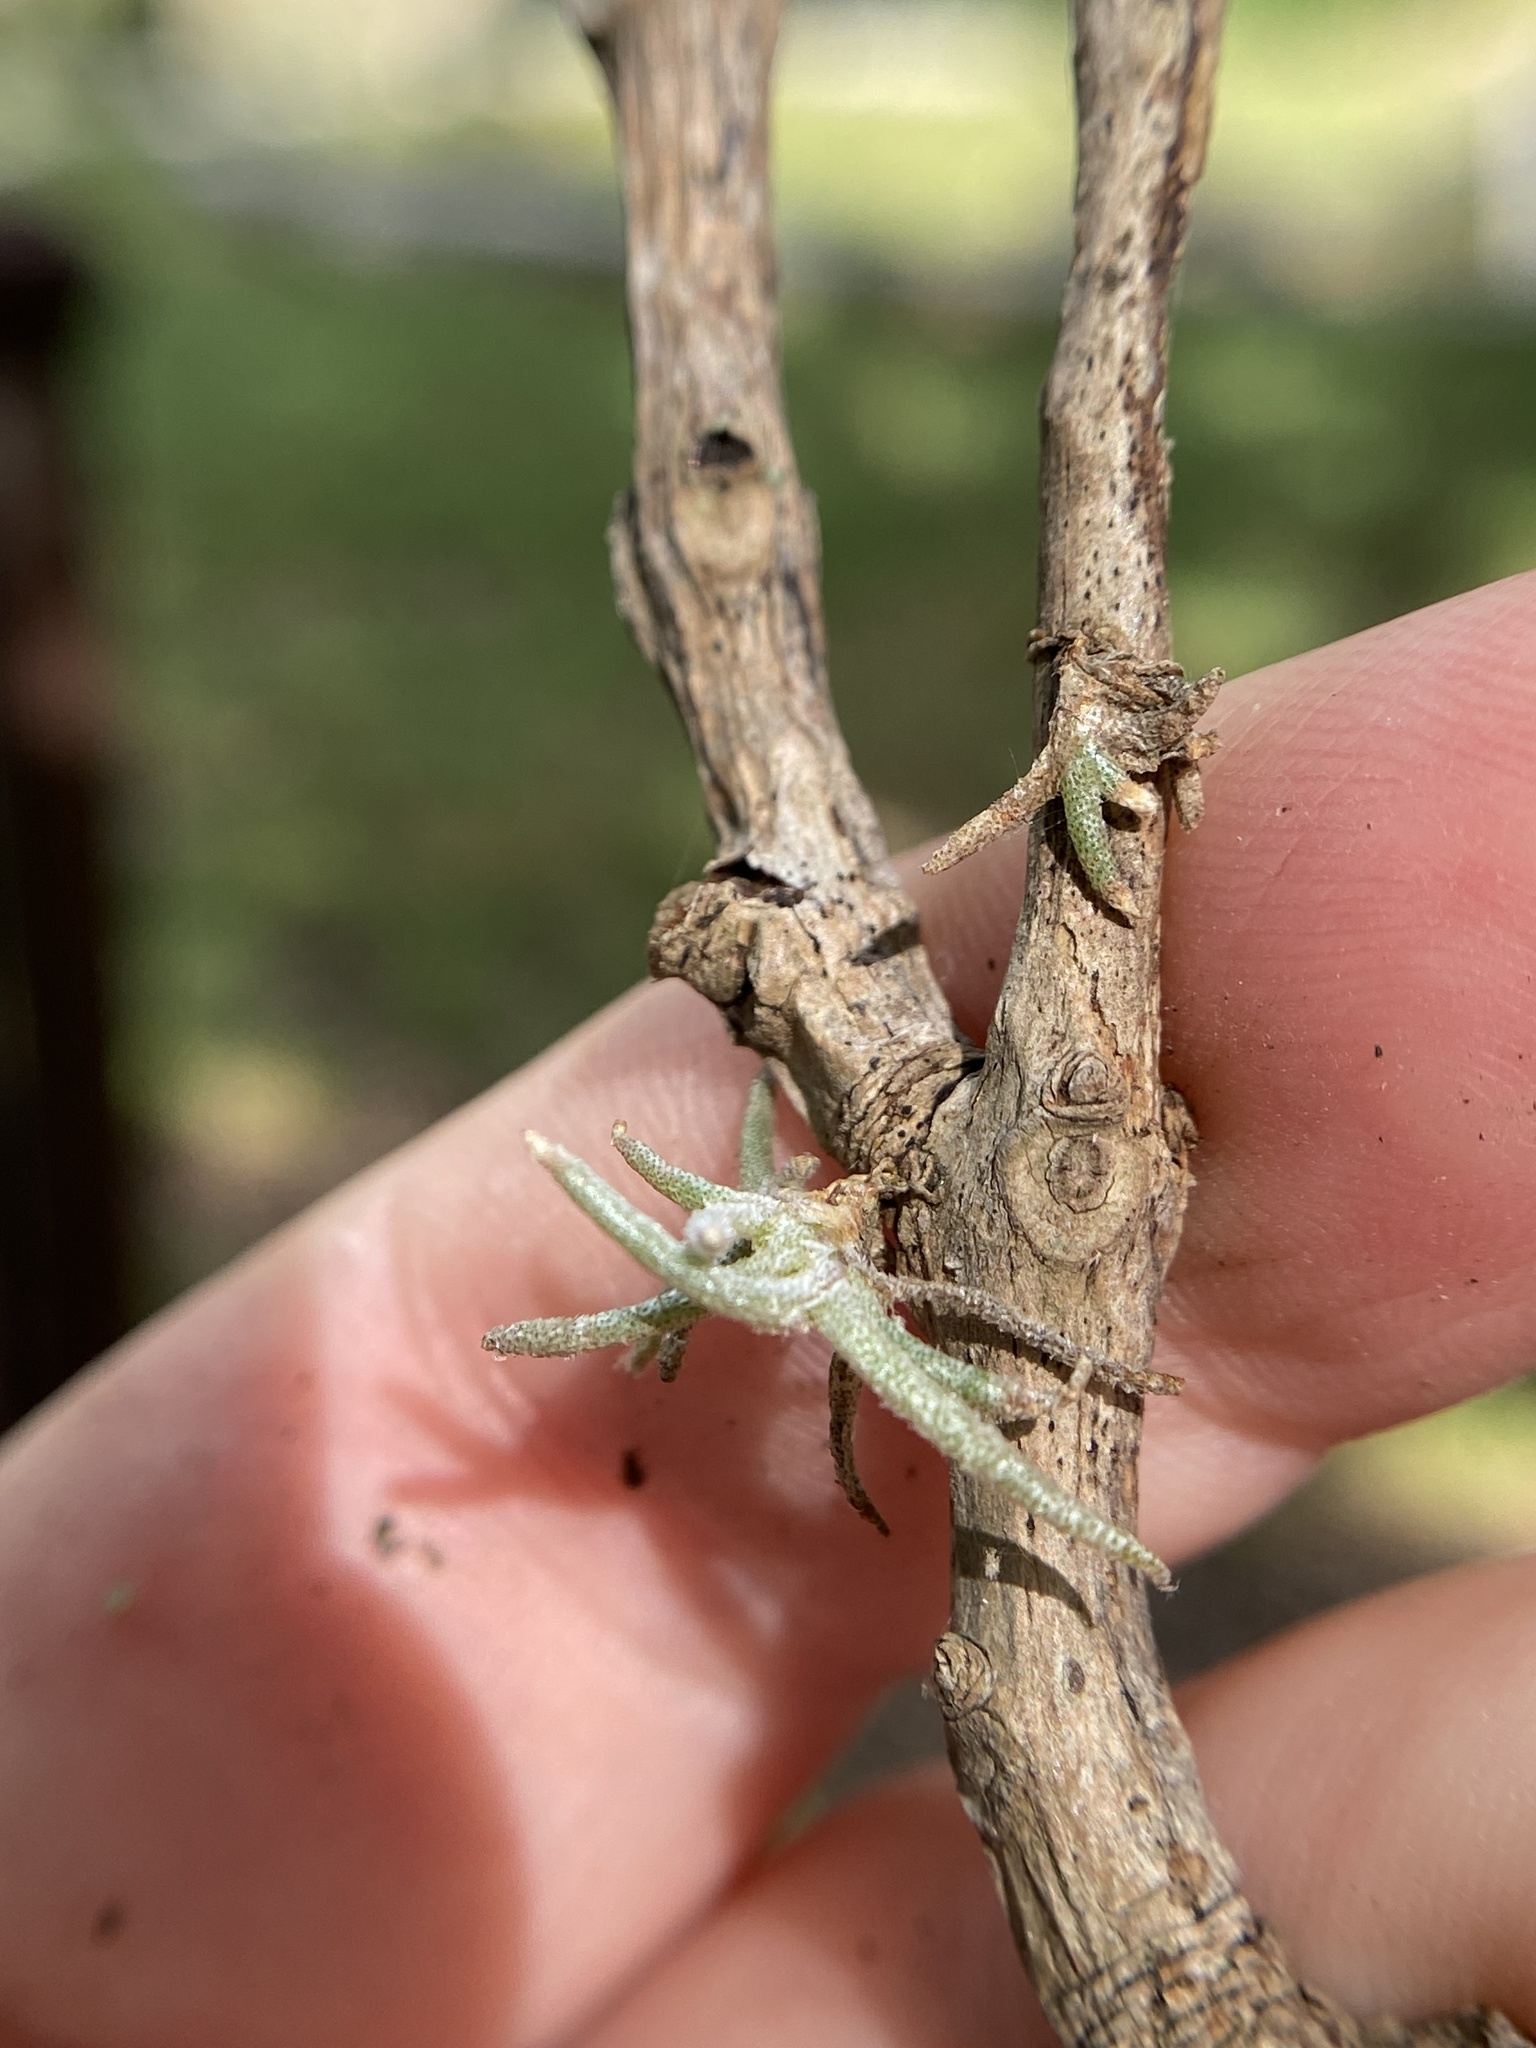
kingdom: Plantae
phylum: Tracheophyta
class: Liliopsida
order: Poales
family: Bromeliaceae
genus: Tillandsia
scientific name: Tillandsia recurvata
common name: Small ballmoss
